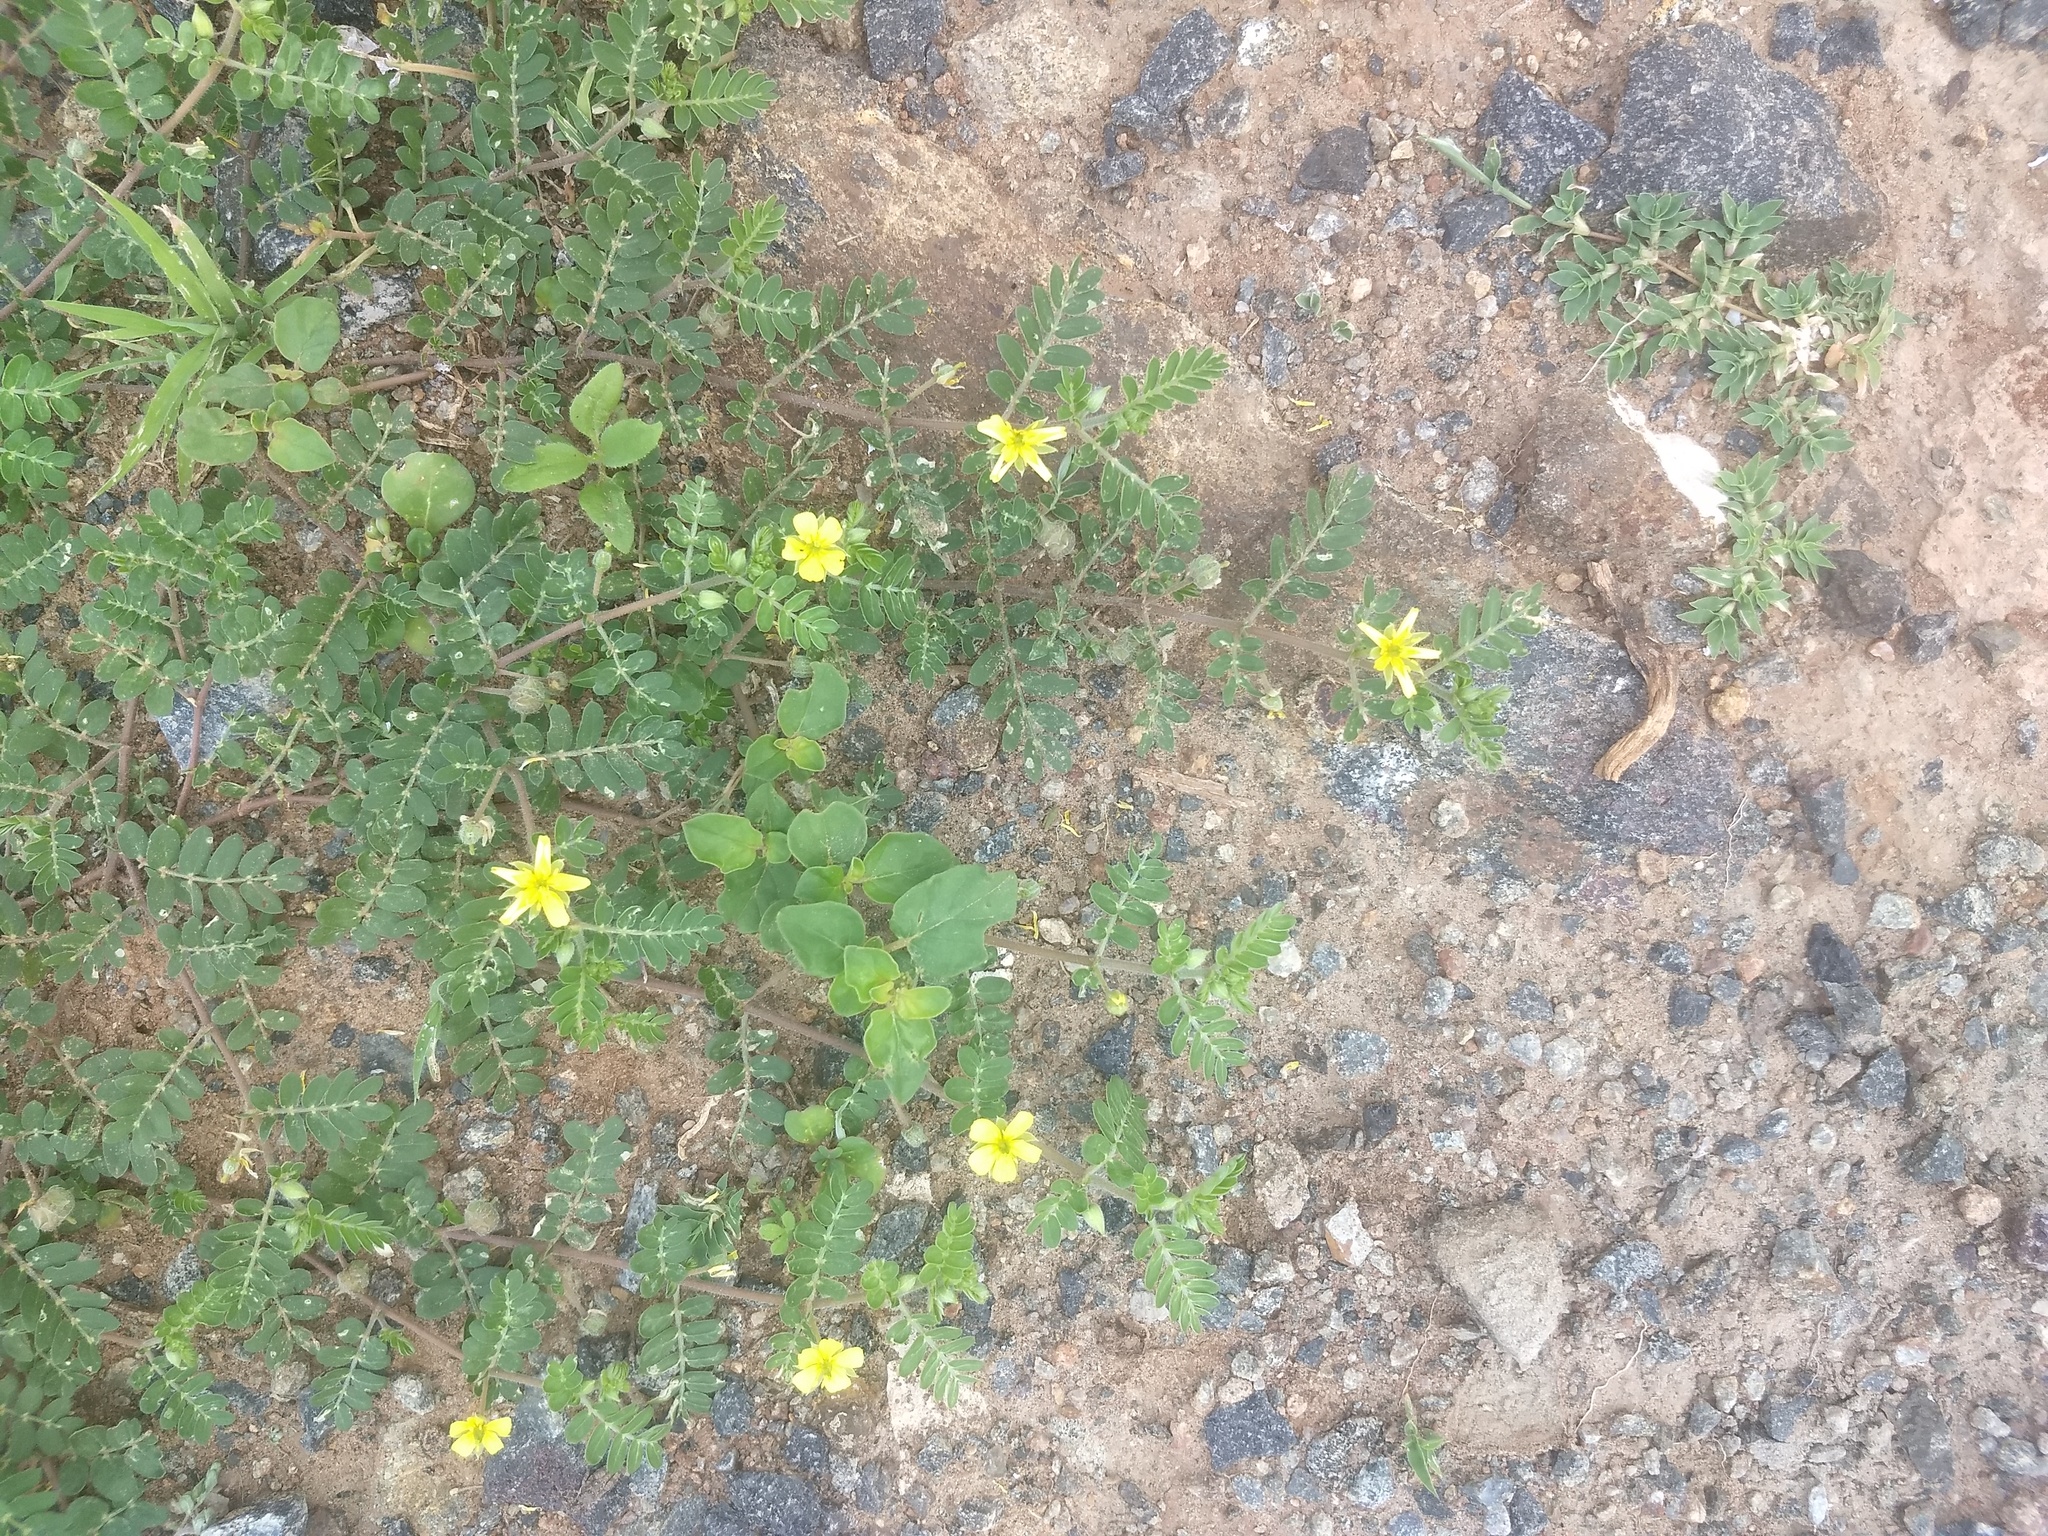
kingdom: Plantae
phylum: Tracheophyta
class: Magnoliopsida
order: Zygophyllales
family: Zygophyllaceae
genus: Tribulus
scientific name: Tribulus terrestris
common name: Puncturevine
